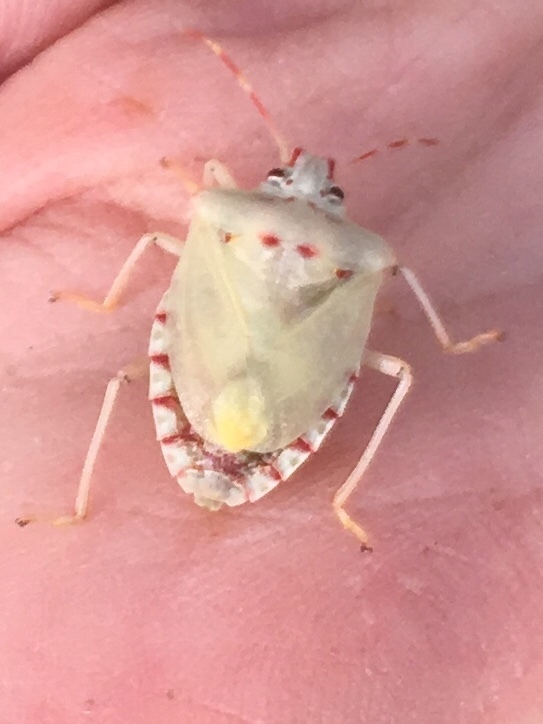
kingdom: Animalia
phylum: Arthropoda
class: Insecta
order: Hemiptera
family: Pentatomidae
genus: Halyomorpha
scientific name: Halyomorpha halys
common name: Brown marmorated stink bug
